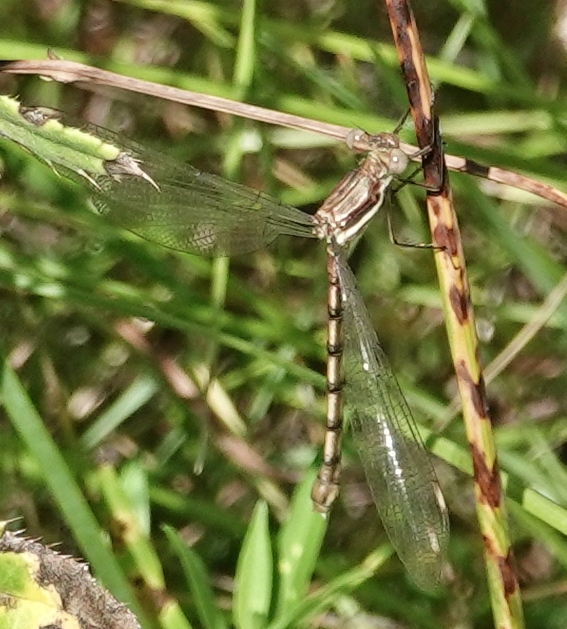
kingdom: Animalia
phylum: Arthropoda
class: Insecta
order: Odonata
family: Lestidae
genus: Archilestes
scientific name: Archilestes grandis
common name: Great spreadwing
